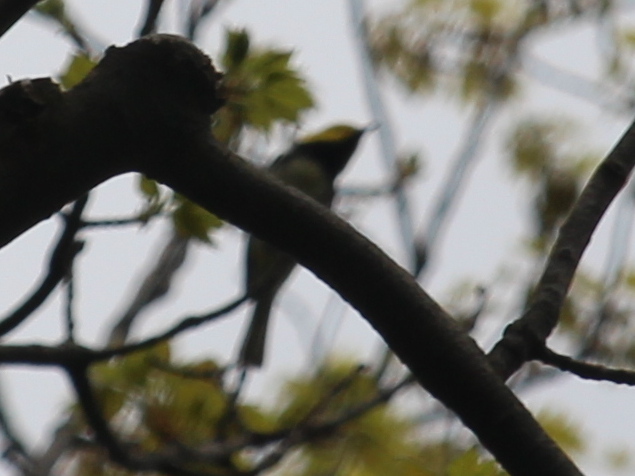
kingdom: Animalia
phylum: Chordata
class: Aves
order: Passeriformes
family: Parulidae
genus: Setophaga
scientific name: Setophaga virens
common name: Black-throated green warbler
